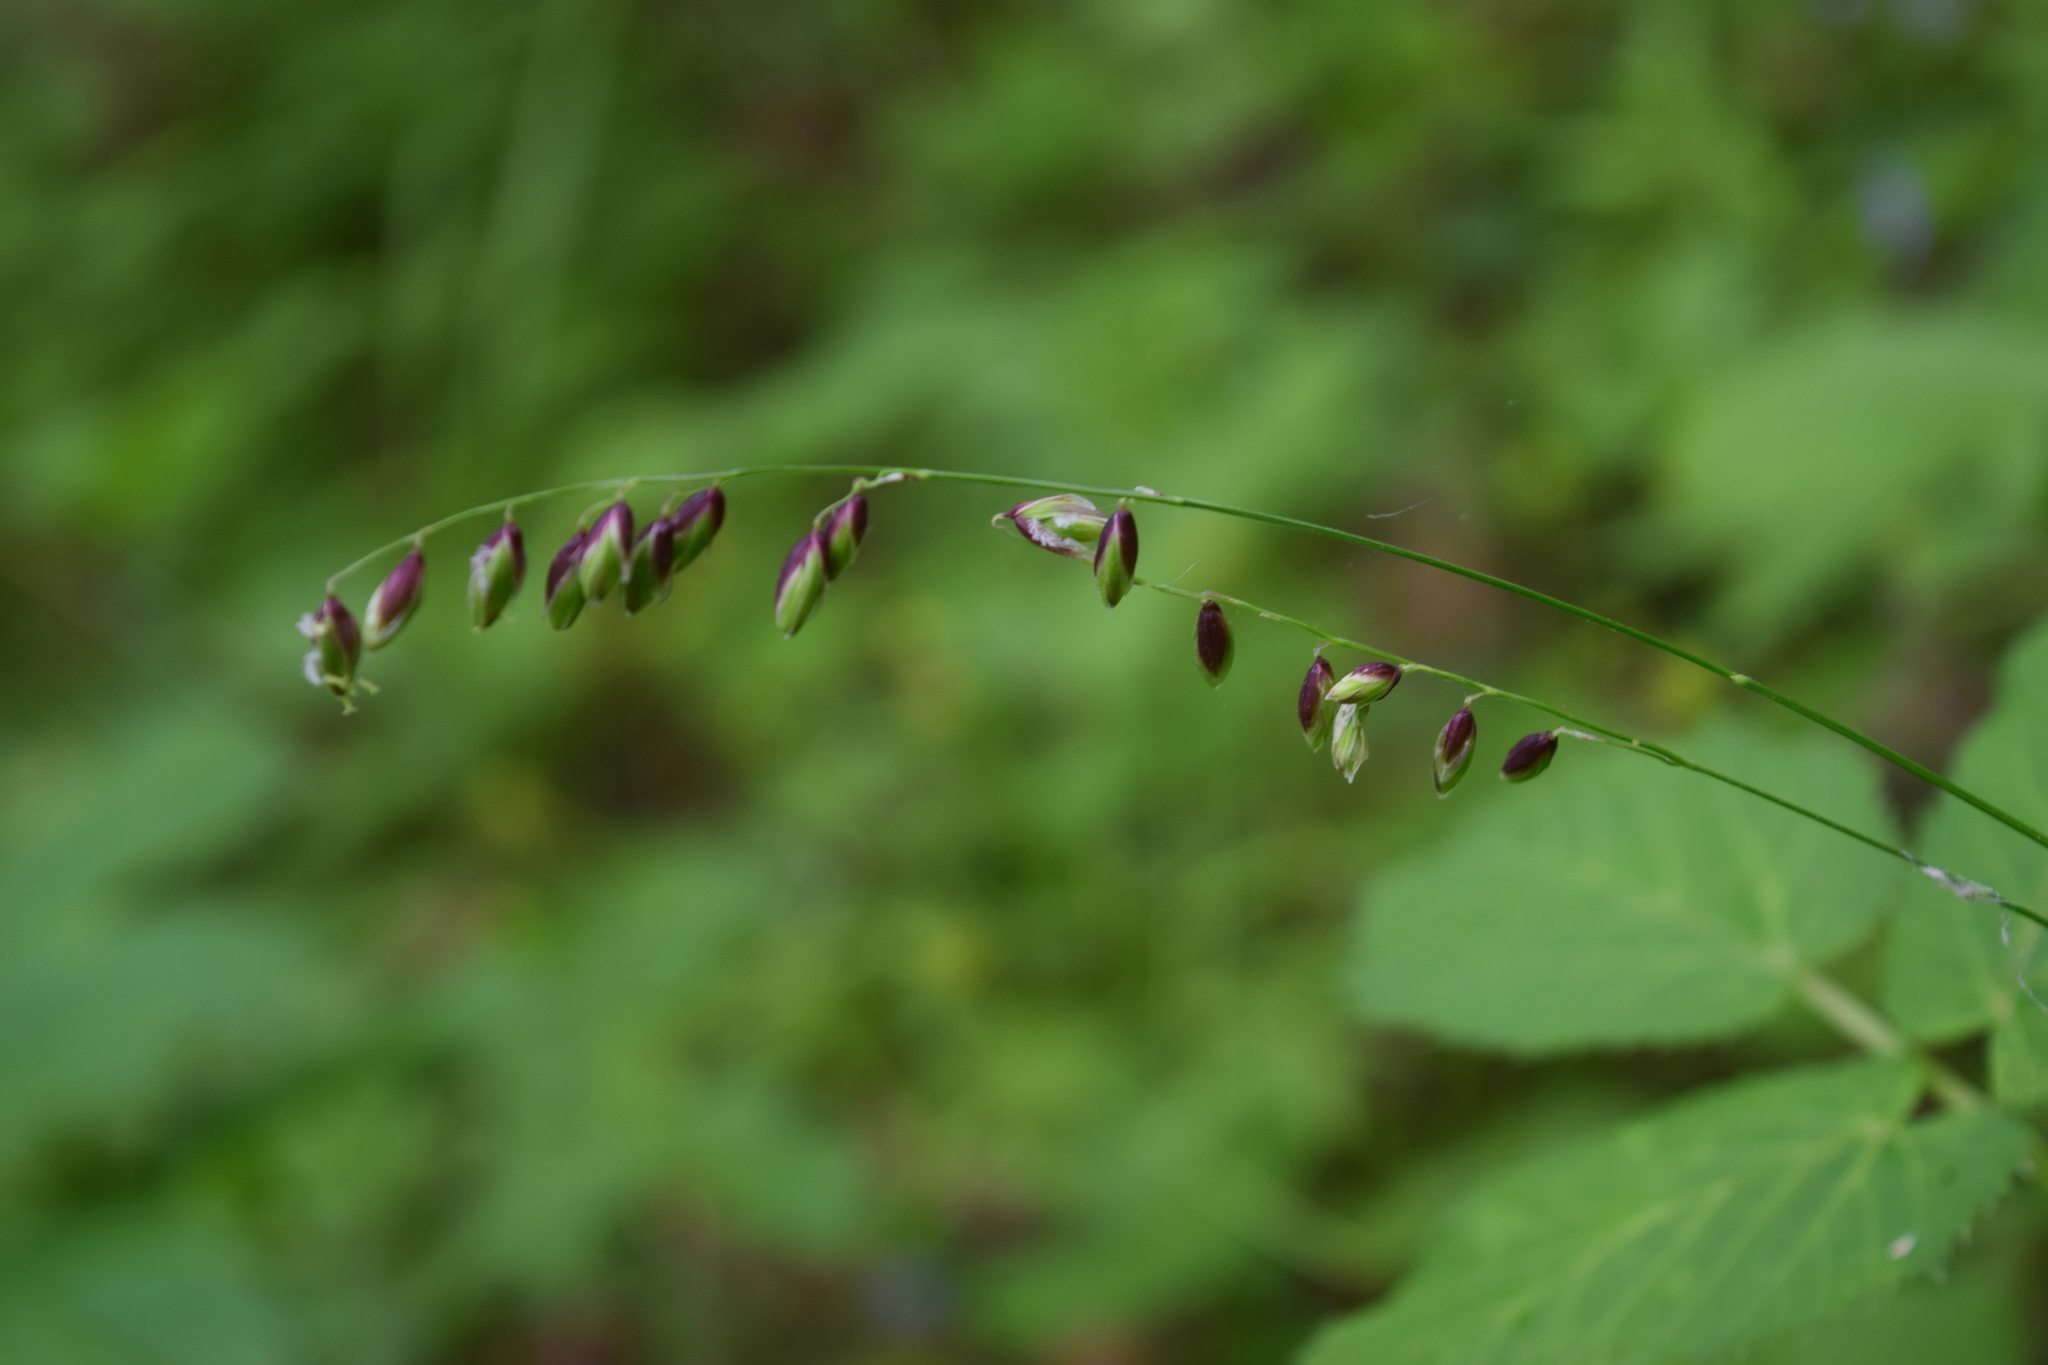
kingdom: Plantae
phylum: Tracheophyta
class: Liliopsida
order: Poales
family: Poaceae
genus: Melica
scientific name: Melica nutans
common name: Mountain melick
